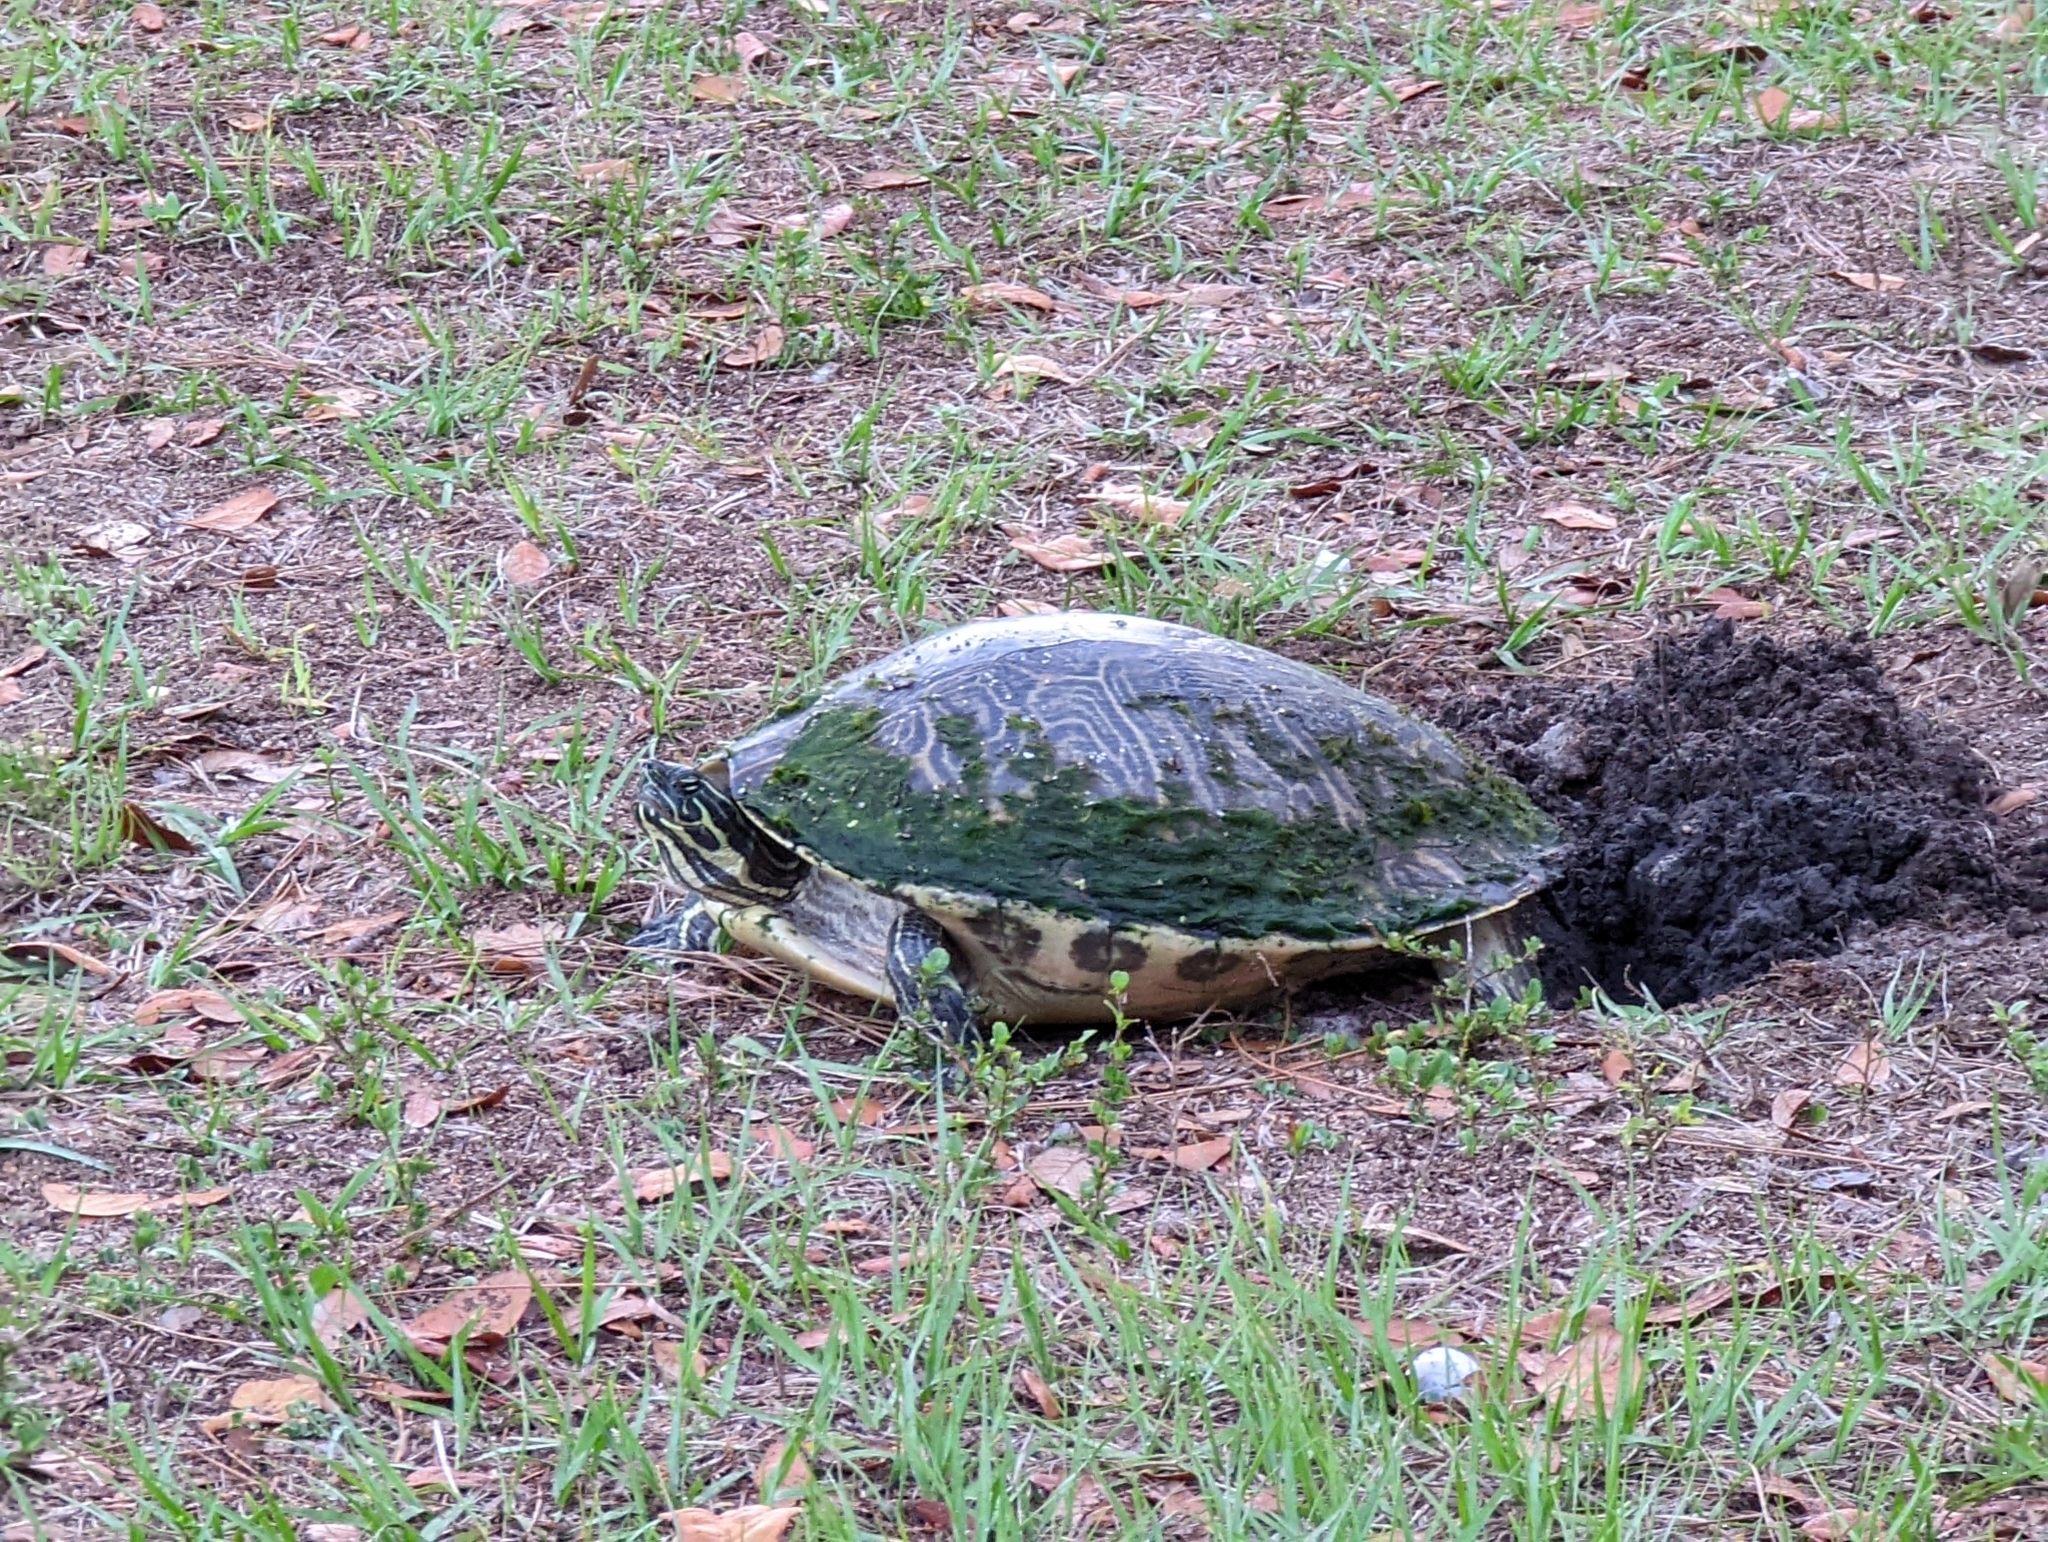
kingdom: Animalia
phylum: Chordata
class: Testudines
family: Emydidae
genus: Pseudemys
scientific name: Pseudemys peninsularis
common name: Peninsula cooter
